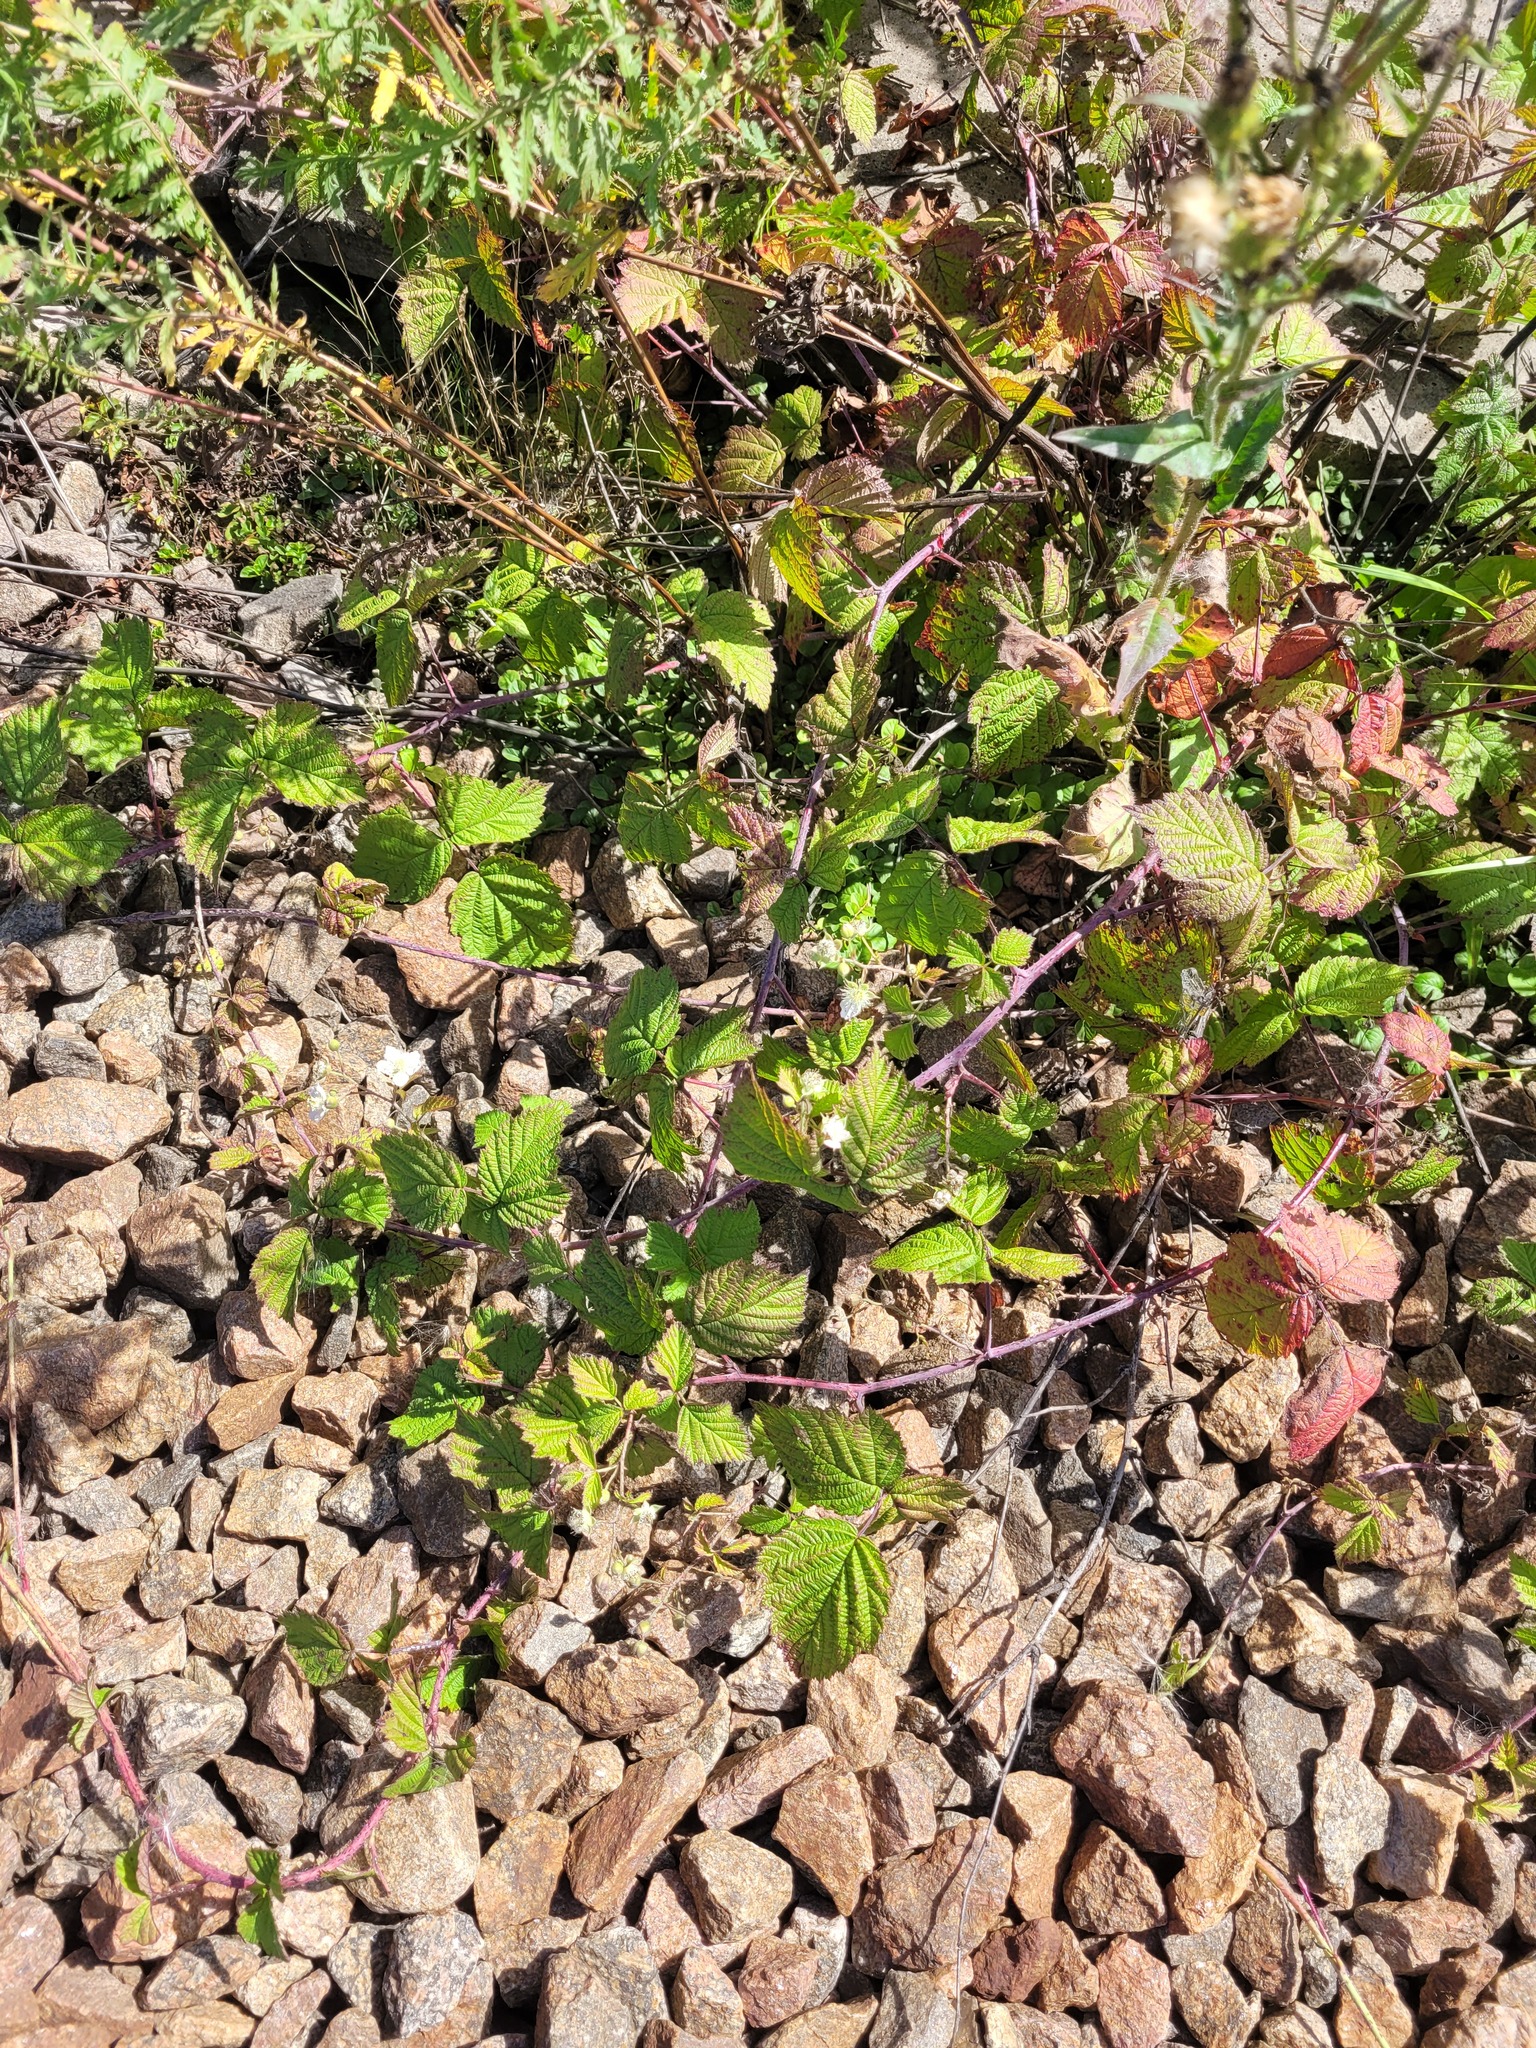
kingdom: Plantae
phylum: Tracheophyta
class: Magnoliopsida
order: Rosales
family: Rosaceae
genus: Rubus
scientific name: Rubus caesius
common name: Dewberry
